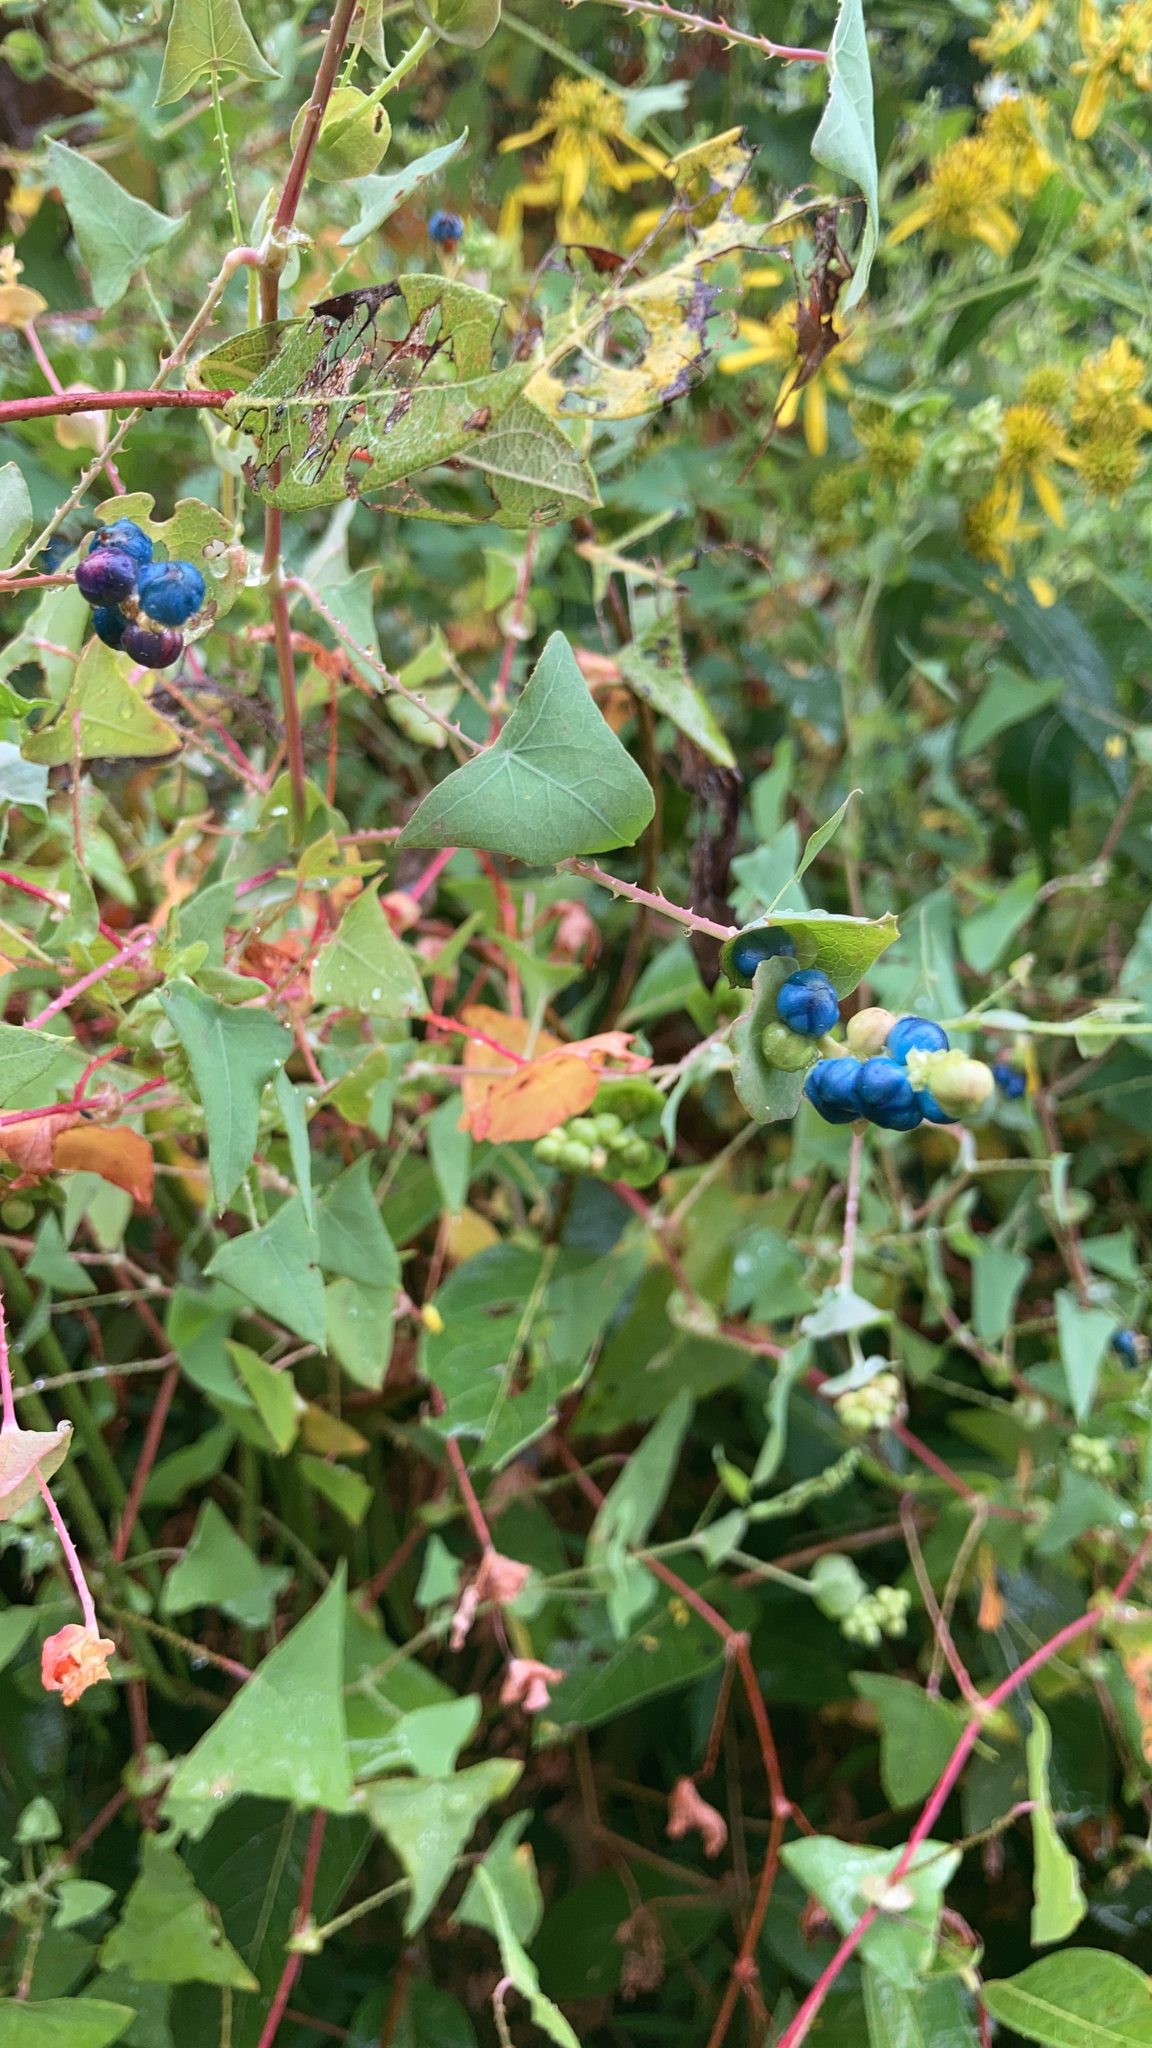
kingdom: Plantae
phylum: Tracheophyta
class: Magnoliopsida
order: Caryophyllales
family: Polygonaceae
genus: Persicaria
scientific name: Persicaria perfoliata
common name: Asiatic tearthumb
